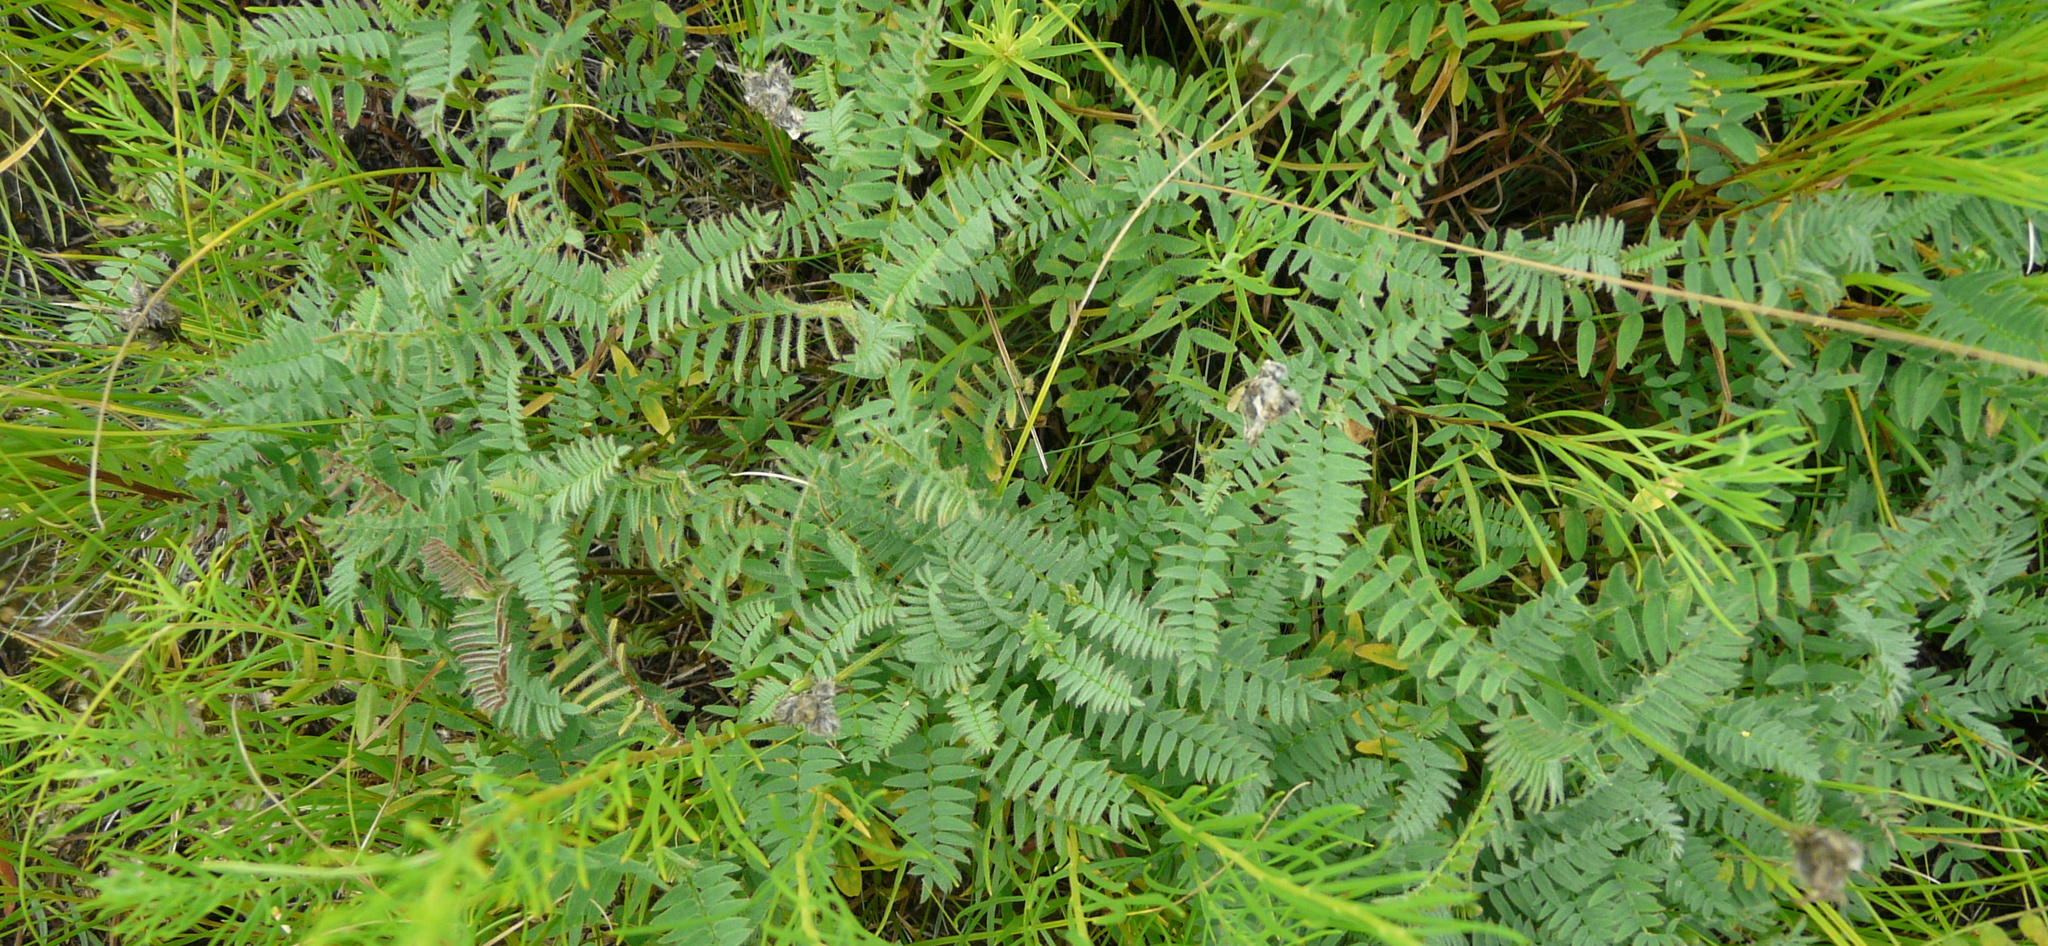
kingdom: Plantae
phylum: Tracheophyta
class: Magnoliopsida
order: Fabales
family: Fabaceae
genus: Astragalus
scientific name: Astragalus danicus
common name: Purple milk-vetch
